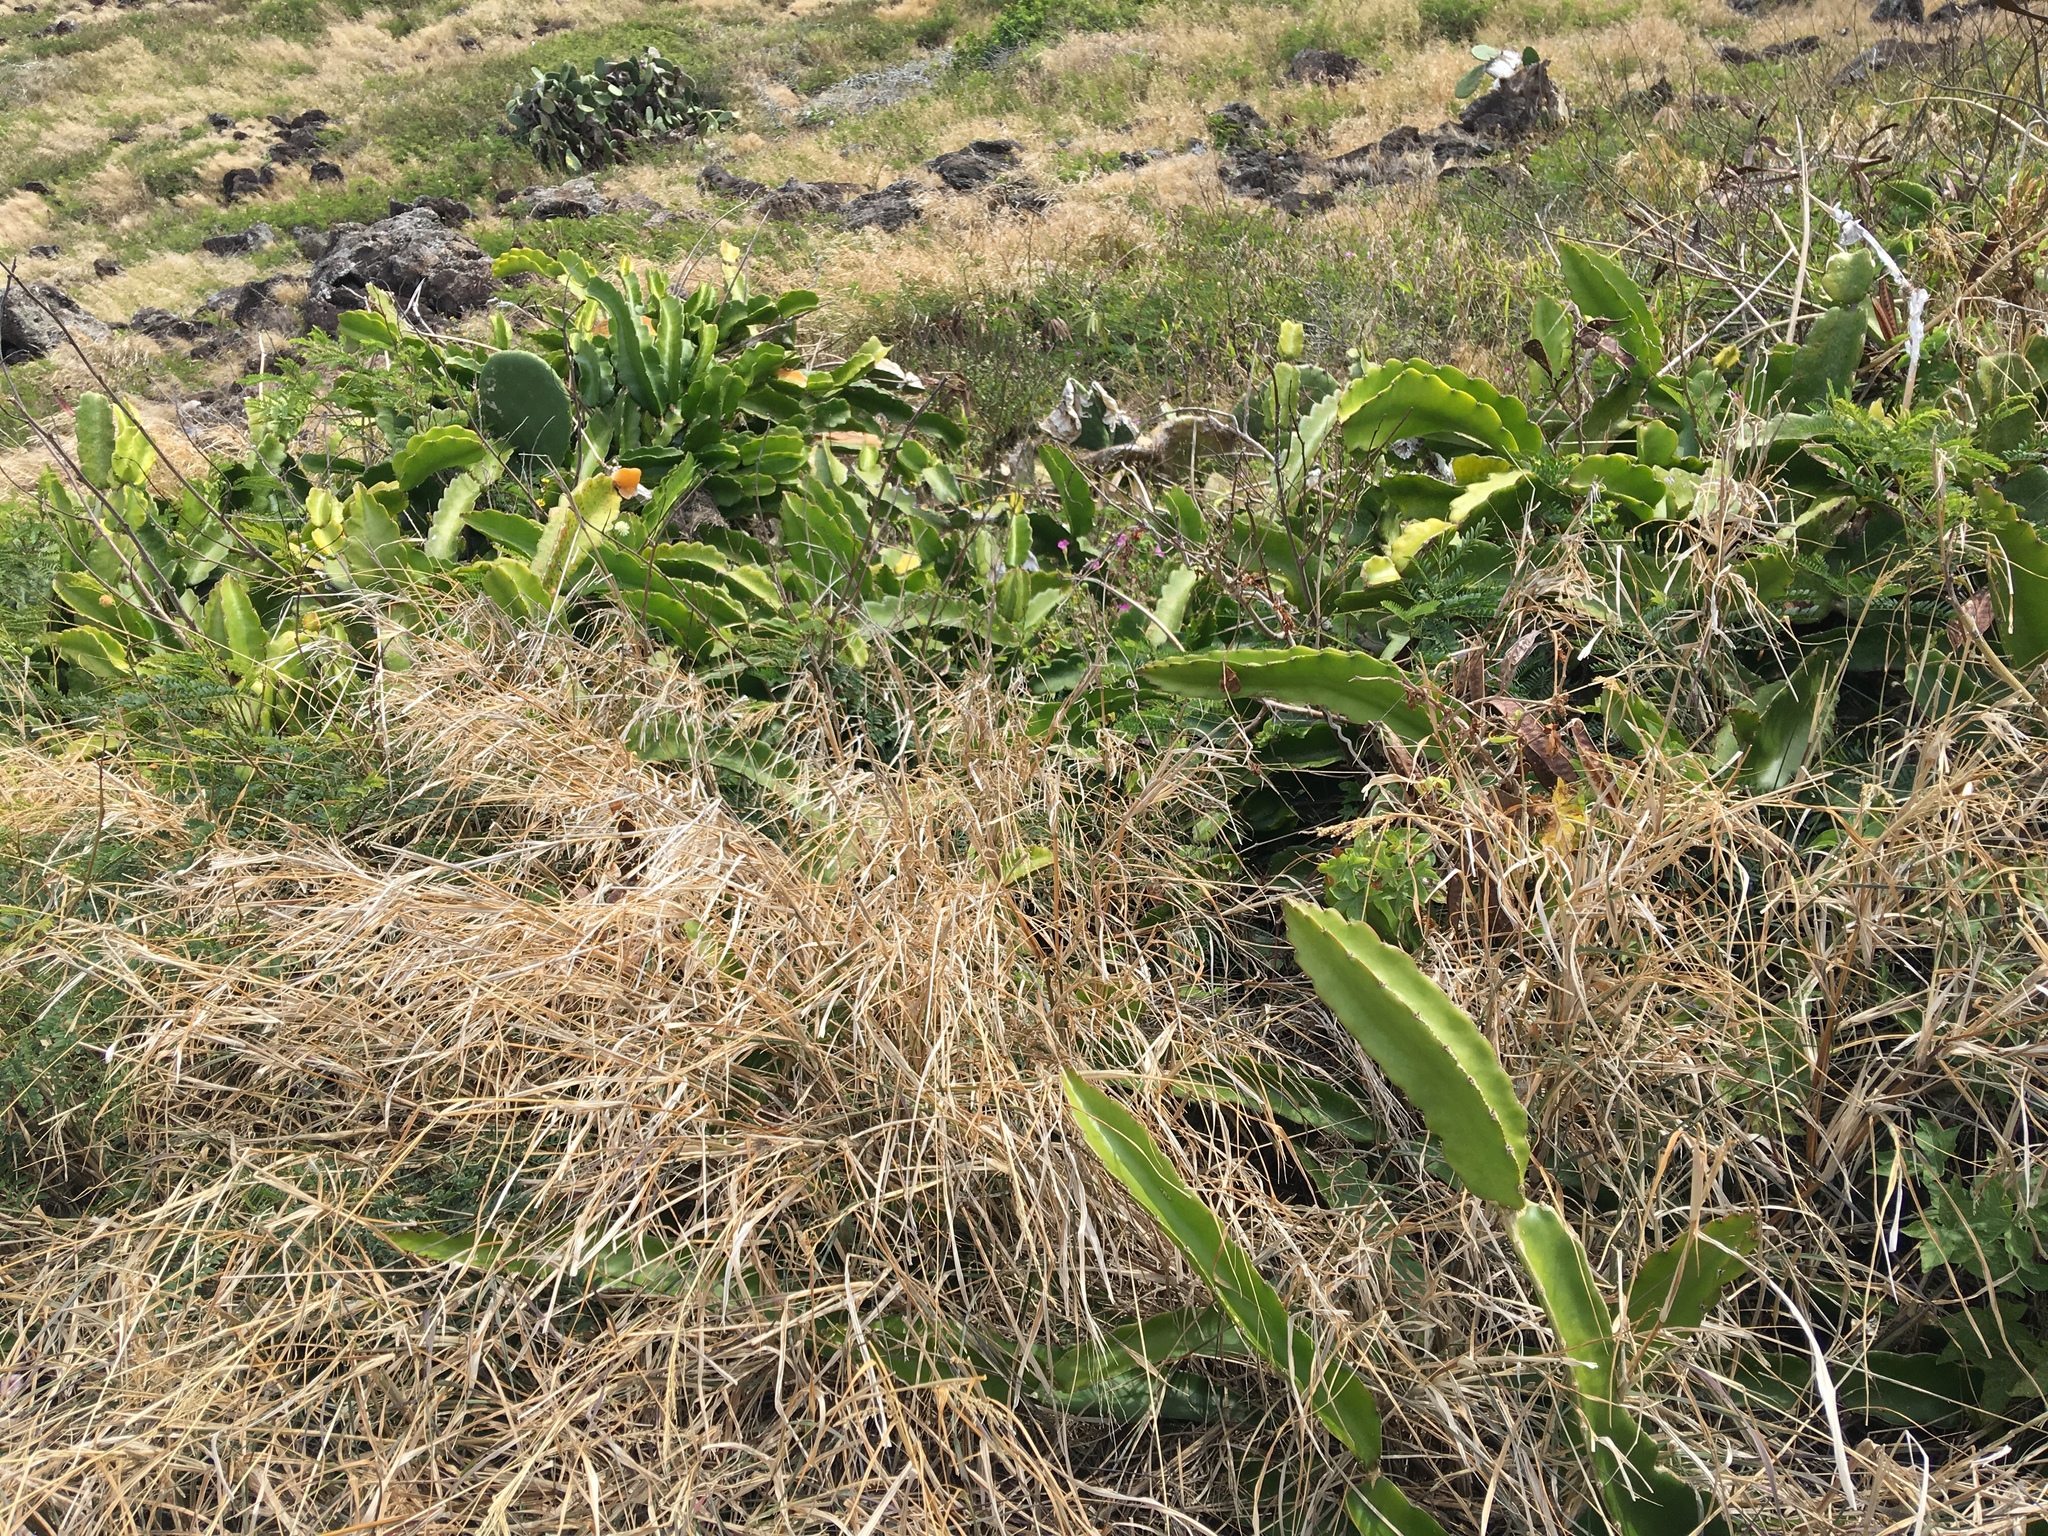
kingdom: Plantae
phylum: Tracheophyta
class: Magnoliopsida
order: Caryophyllales
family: Cactaceae
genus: Selenicereus
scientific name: Selenicereus undatus
